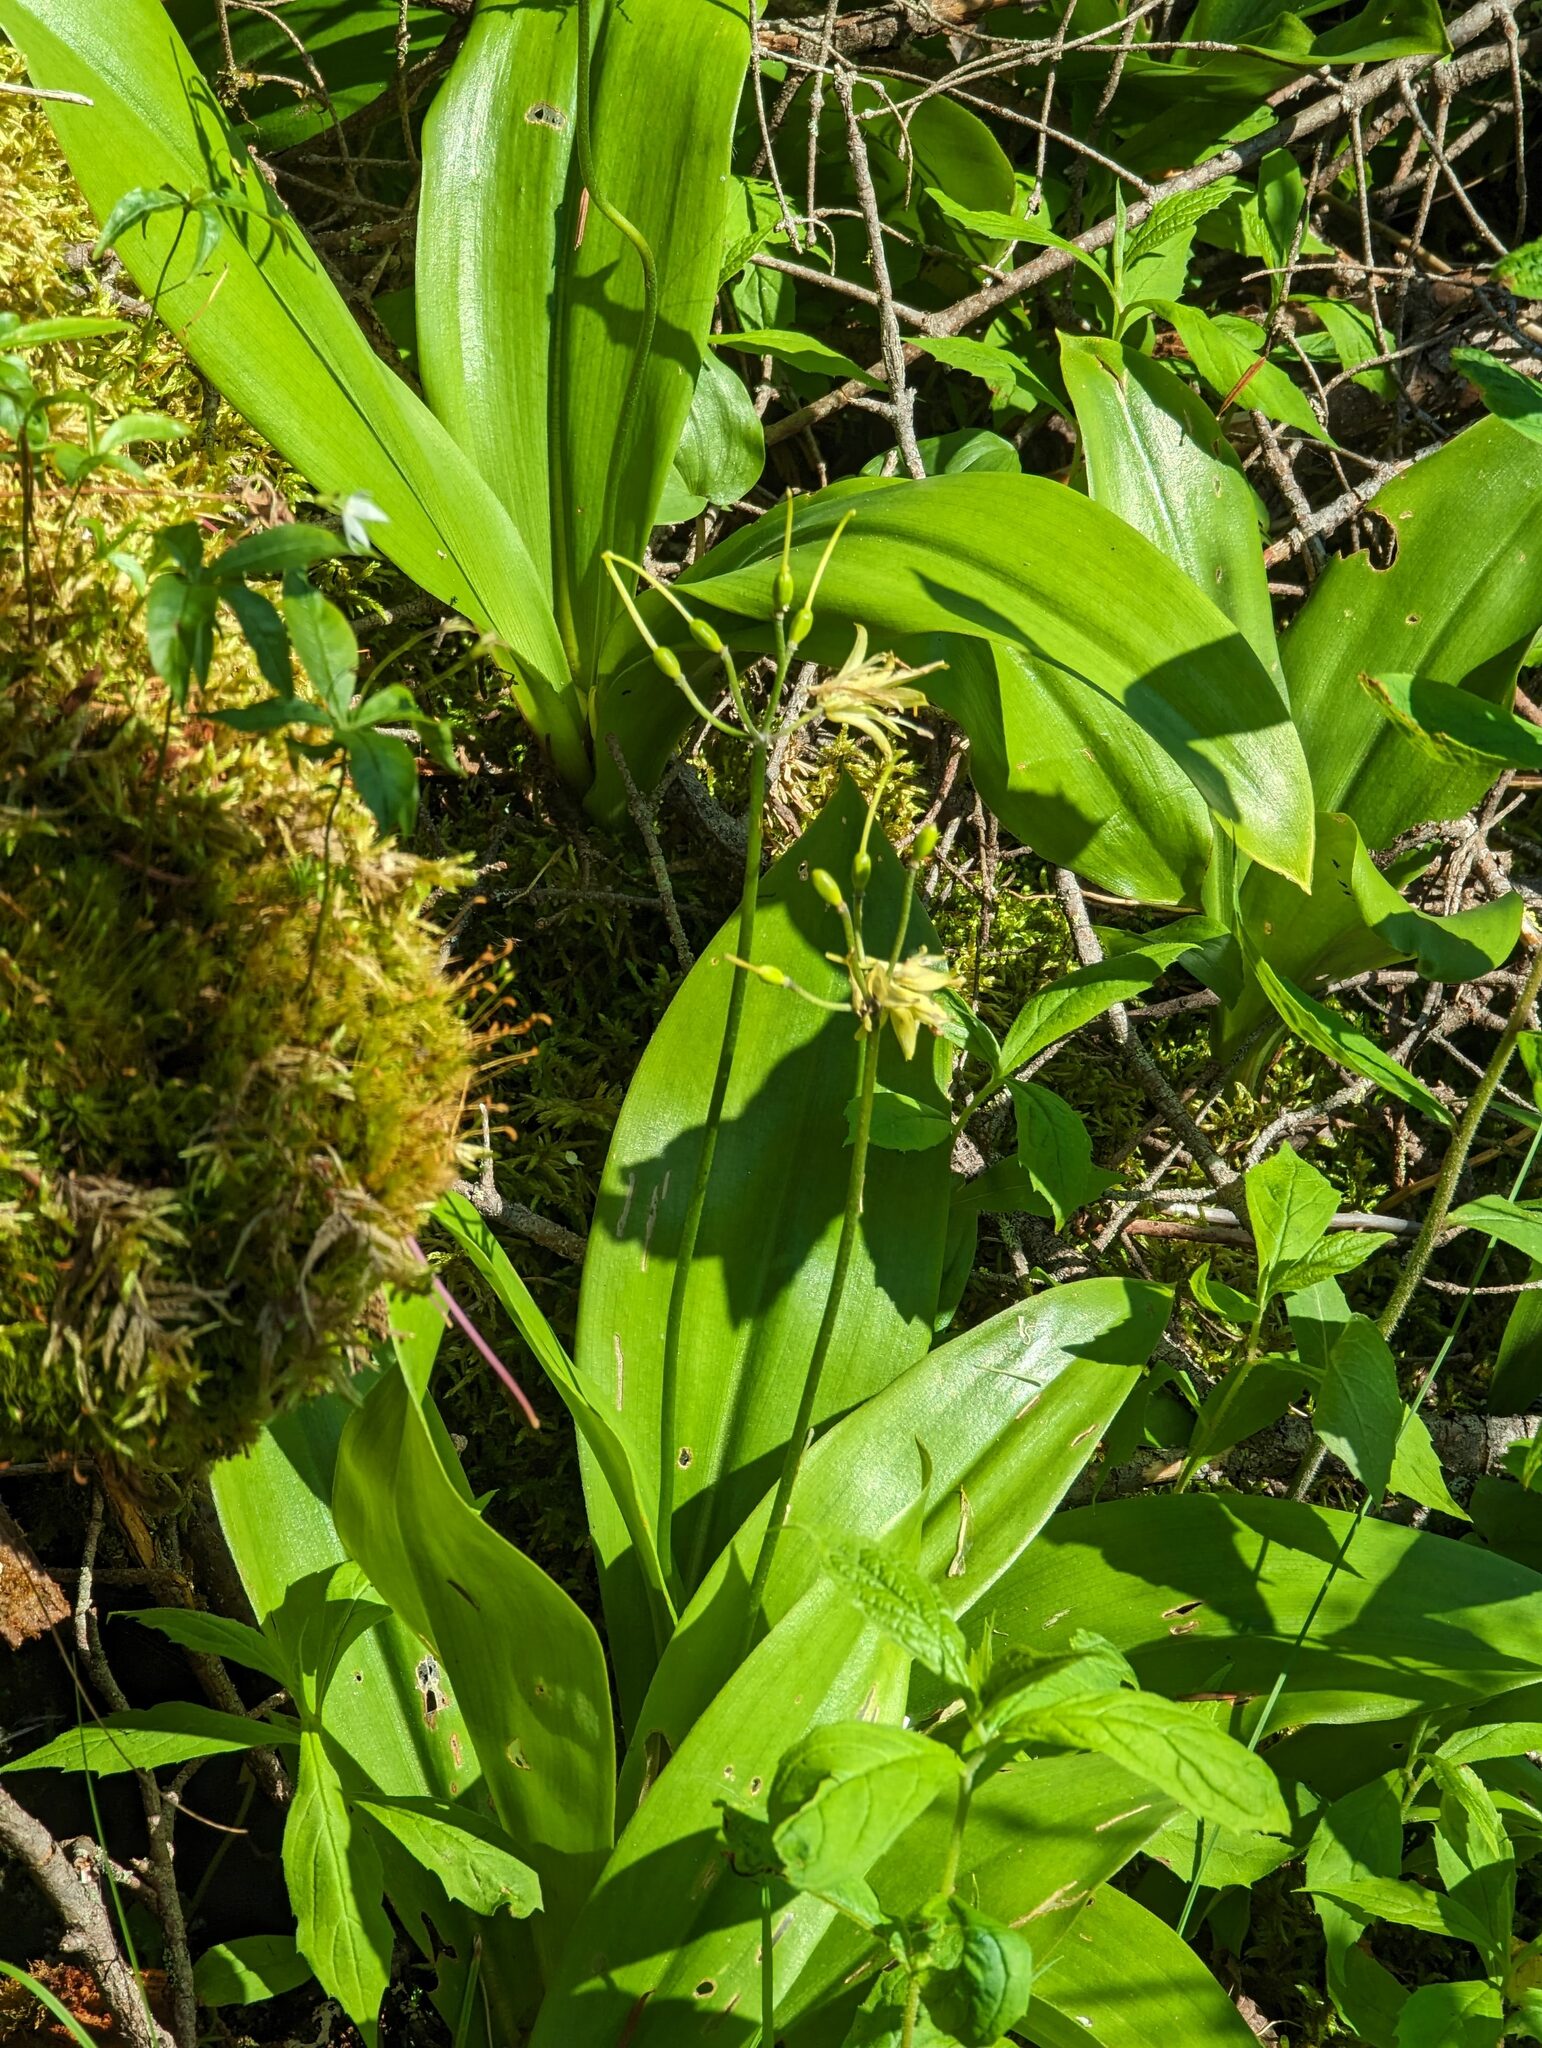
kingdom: Plantae
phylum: Tracheophyta
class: Liliopsida
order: Liliales
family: Liliaceae
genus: Clintonia
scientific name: Clintonia borealis
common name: Yellow clintonia
